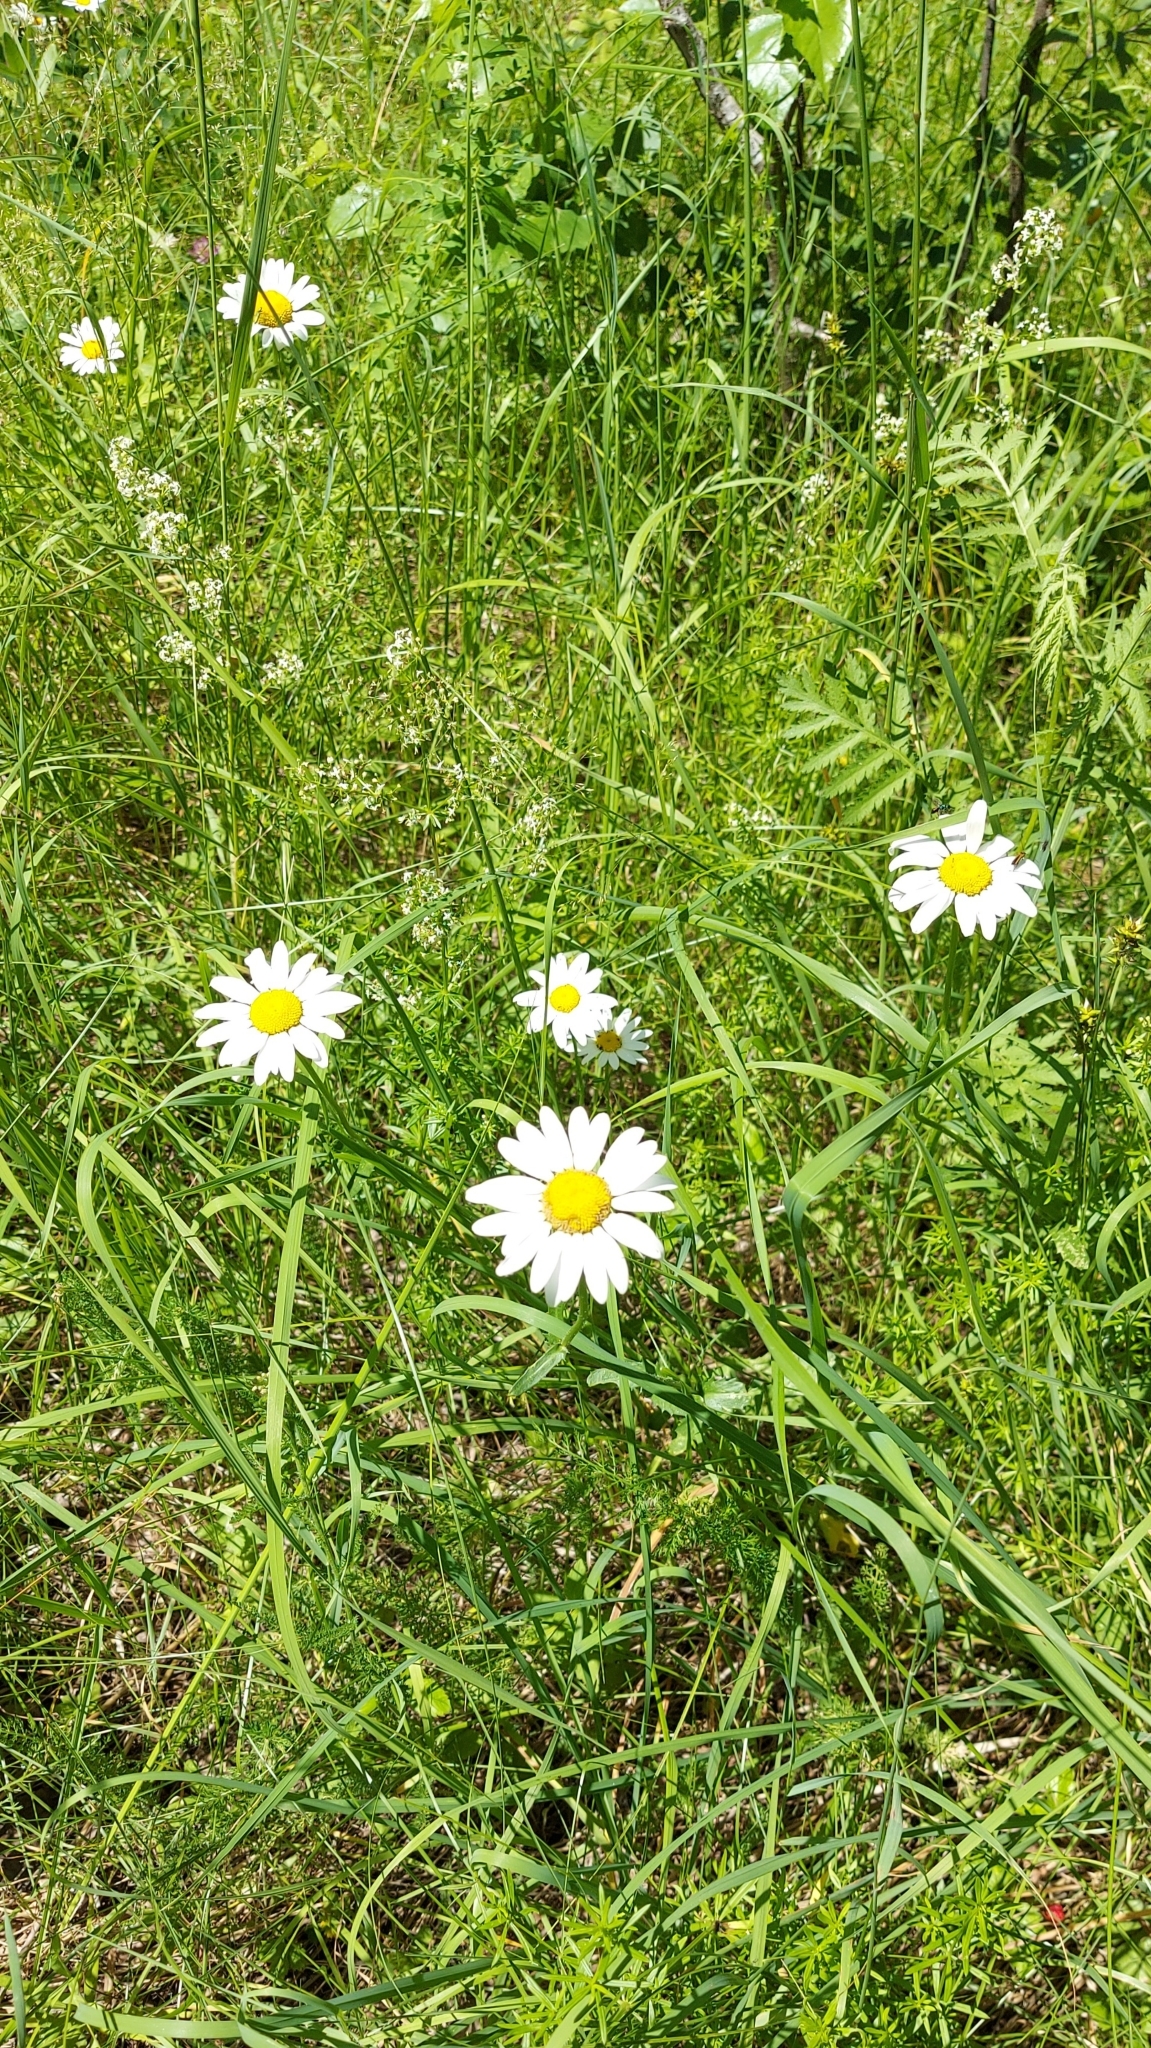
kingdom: Plantae
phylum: Tracheophyta
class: Magnoliopsida
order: Asterales
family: Asteraceae
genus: Leucanthemum
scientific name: Leucanthemum vulgare
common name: Oxeye daisy
